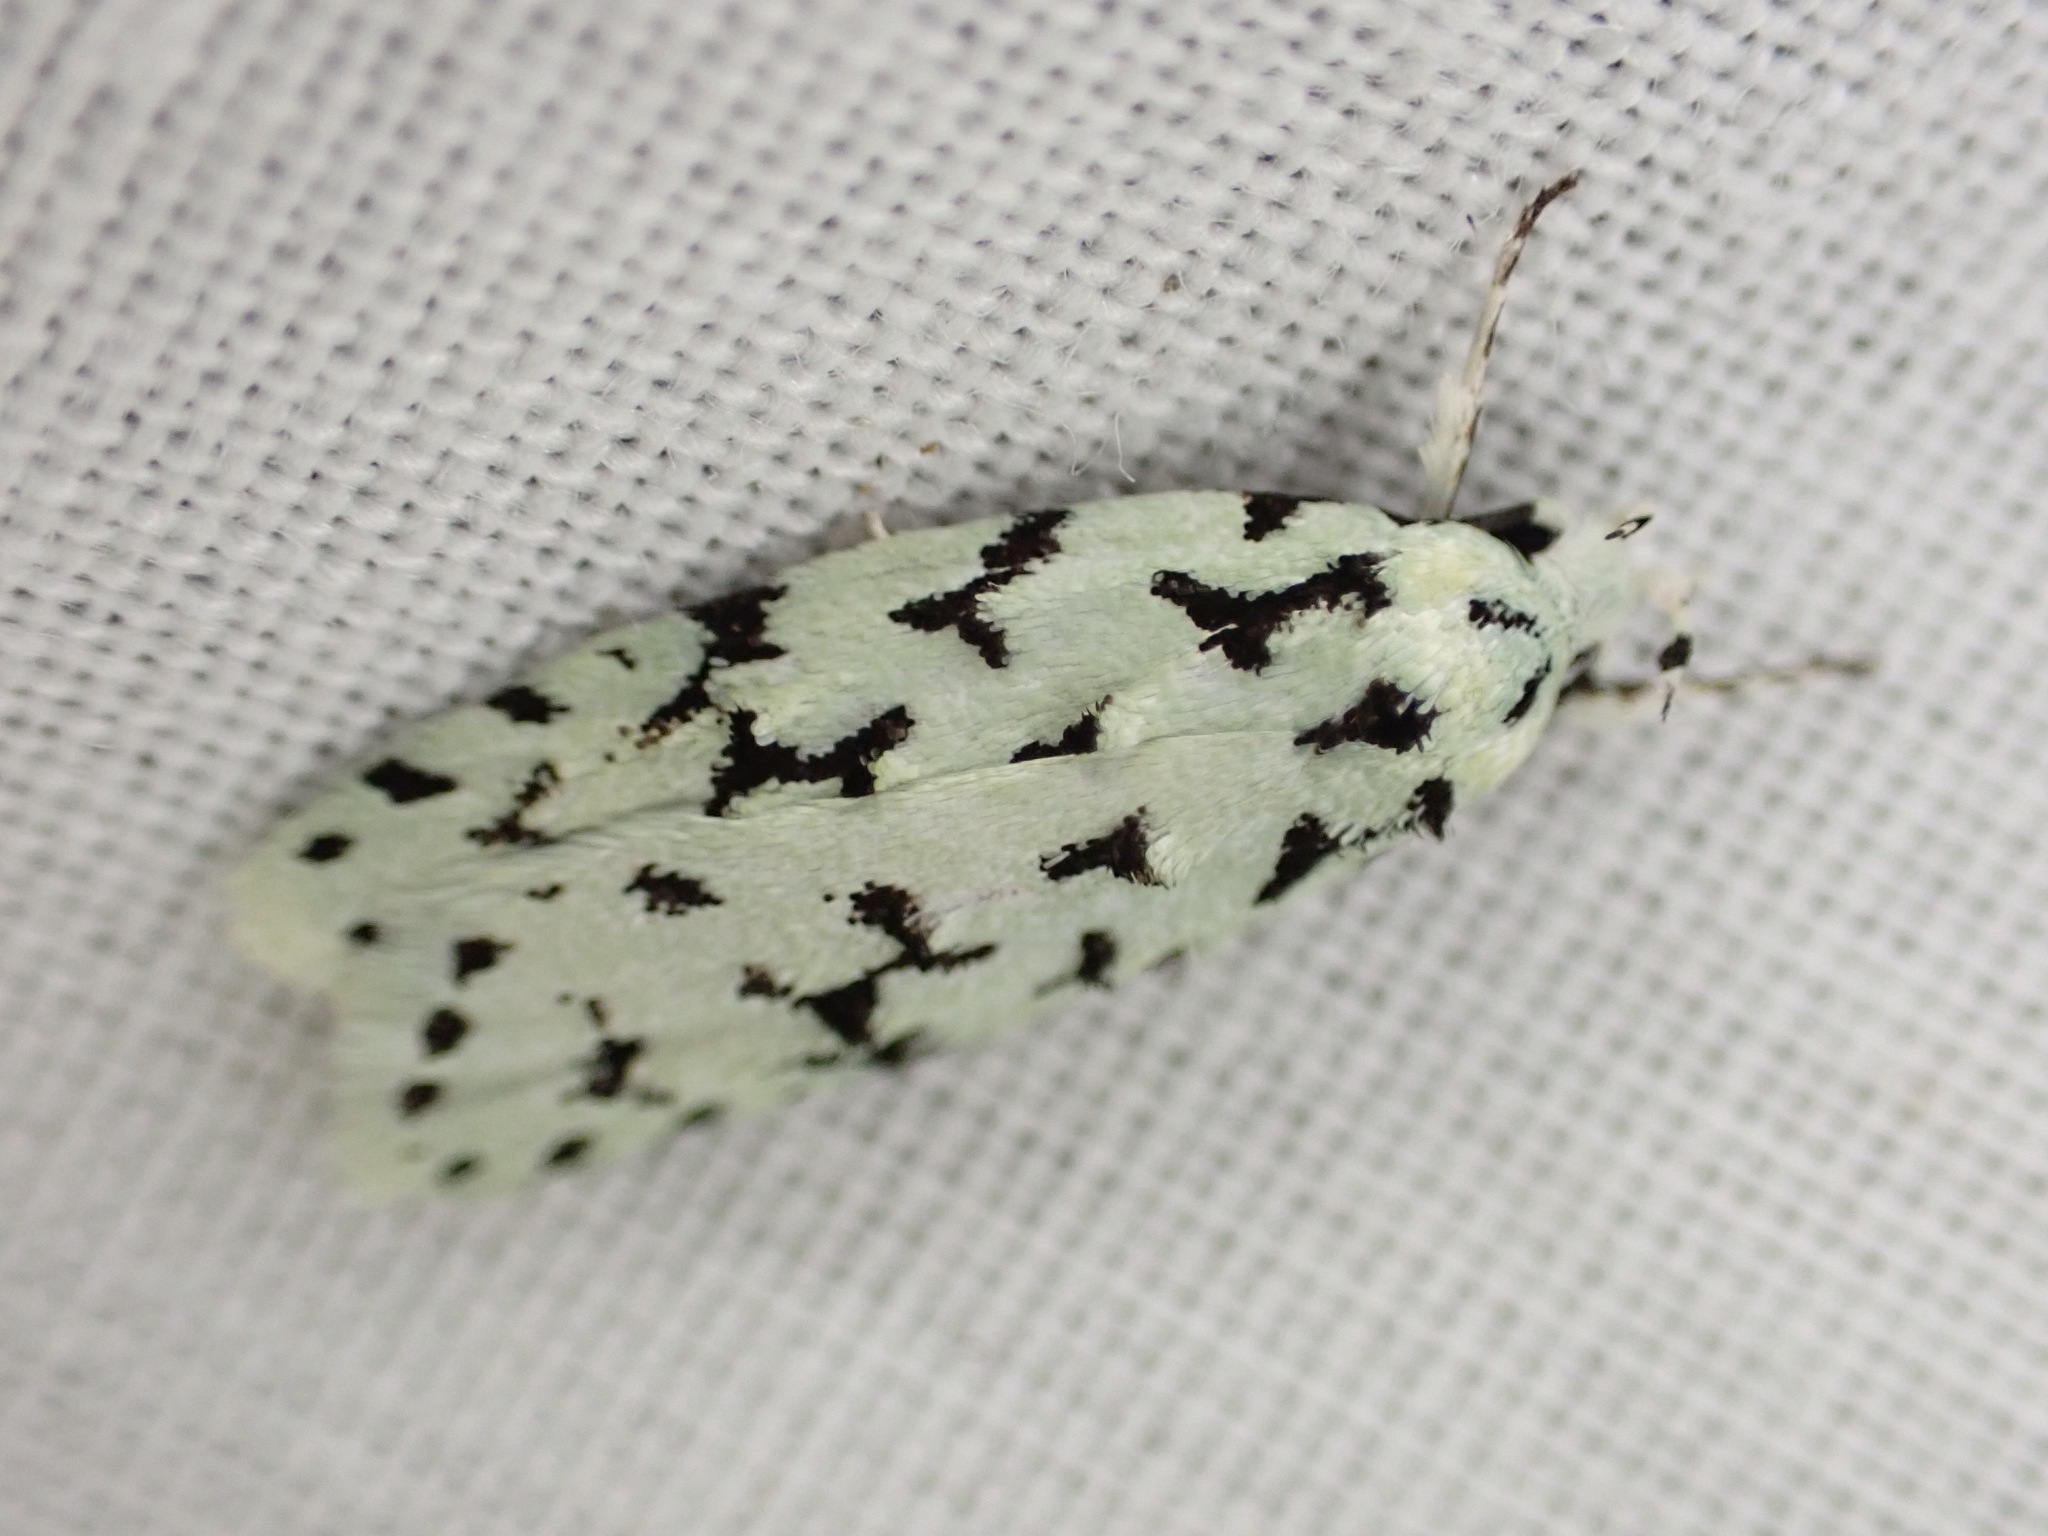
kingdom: Animalia
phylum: Arthropoda
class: Insecta
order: Lepidoptera
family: Oecophoridae
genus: Izatha
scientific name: Izatha huttoni
